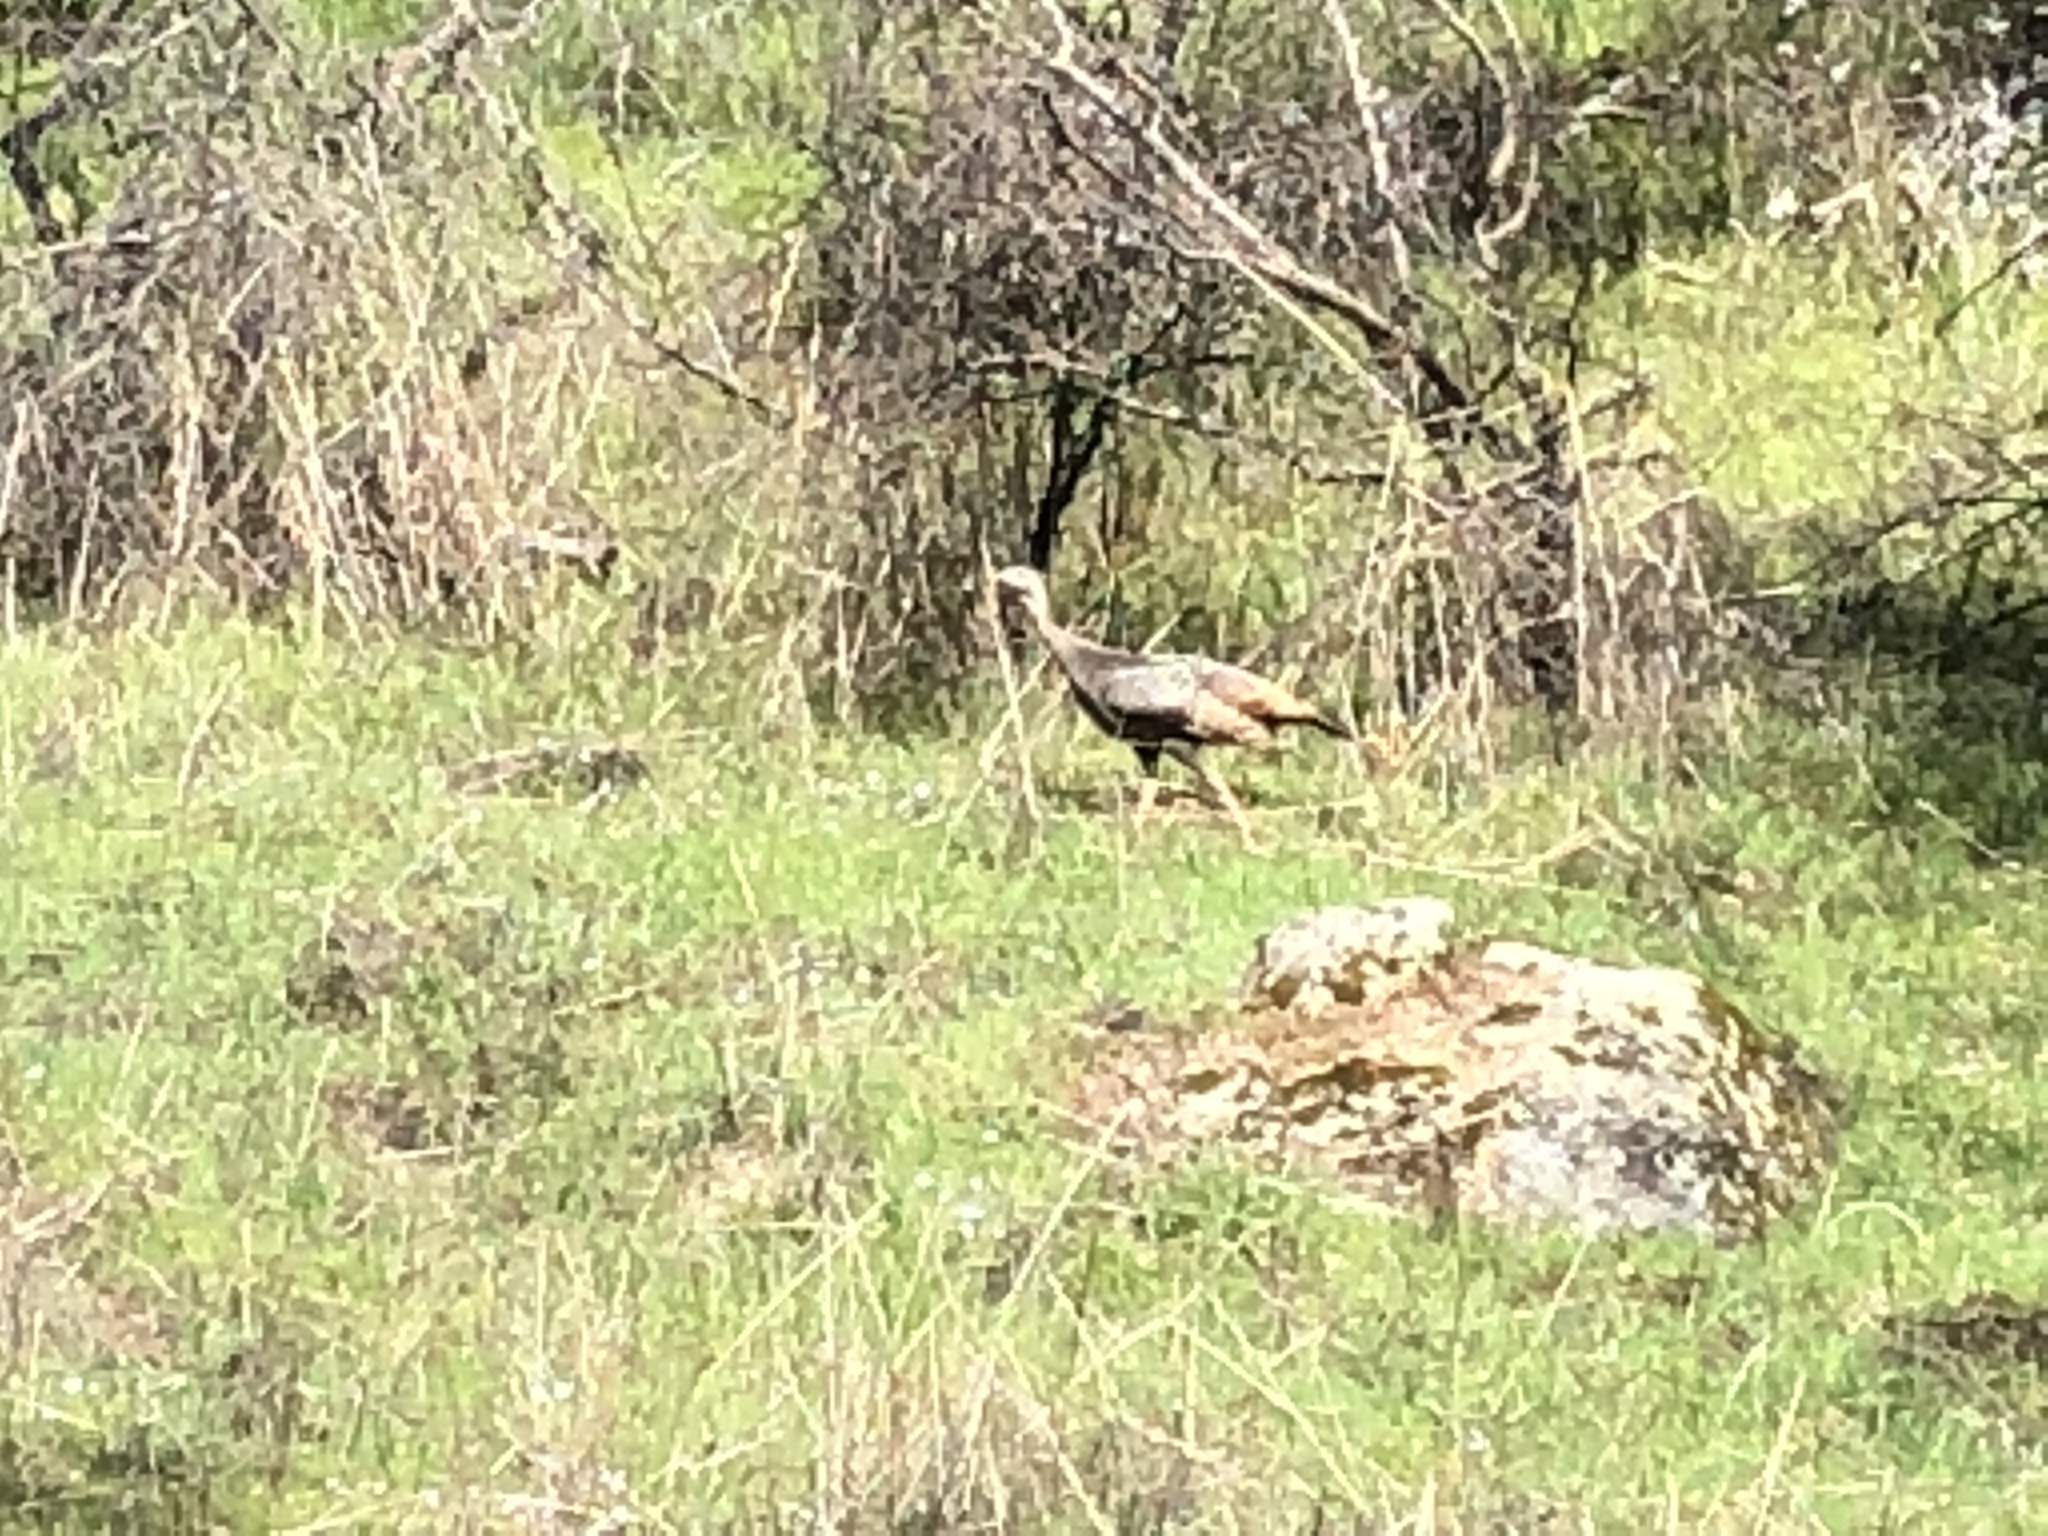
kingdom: Animalia
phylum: Chordata
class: Aves
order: Galliformes
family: Phasianidae
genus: Meleagris
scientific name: Meleagris gallopavo
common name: Wild turkey
